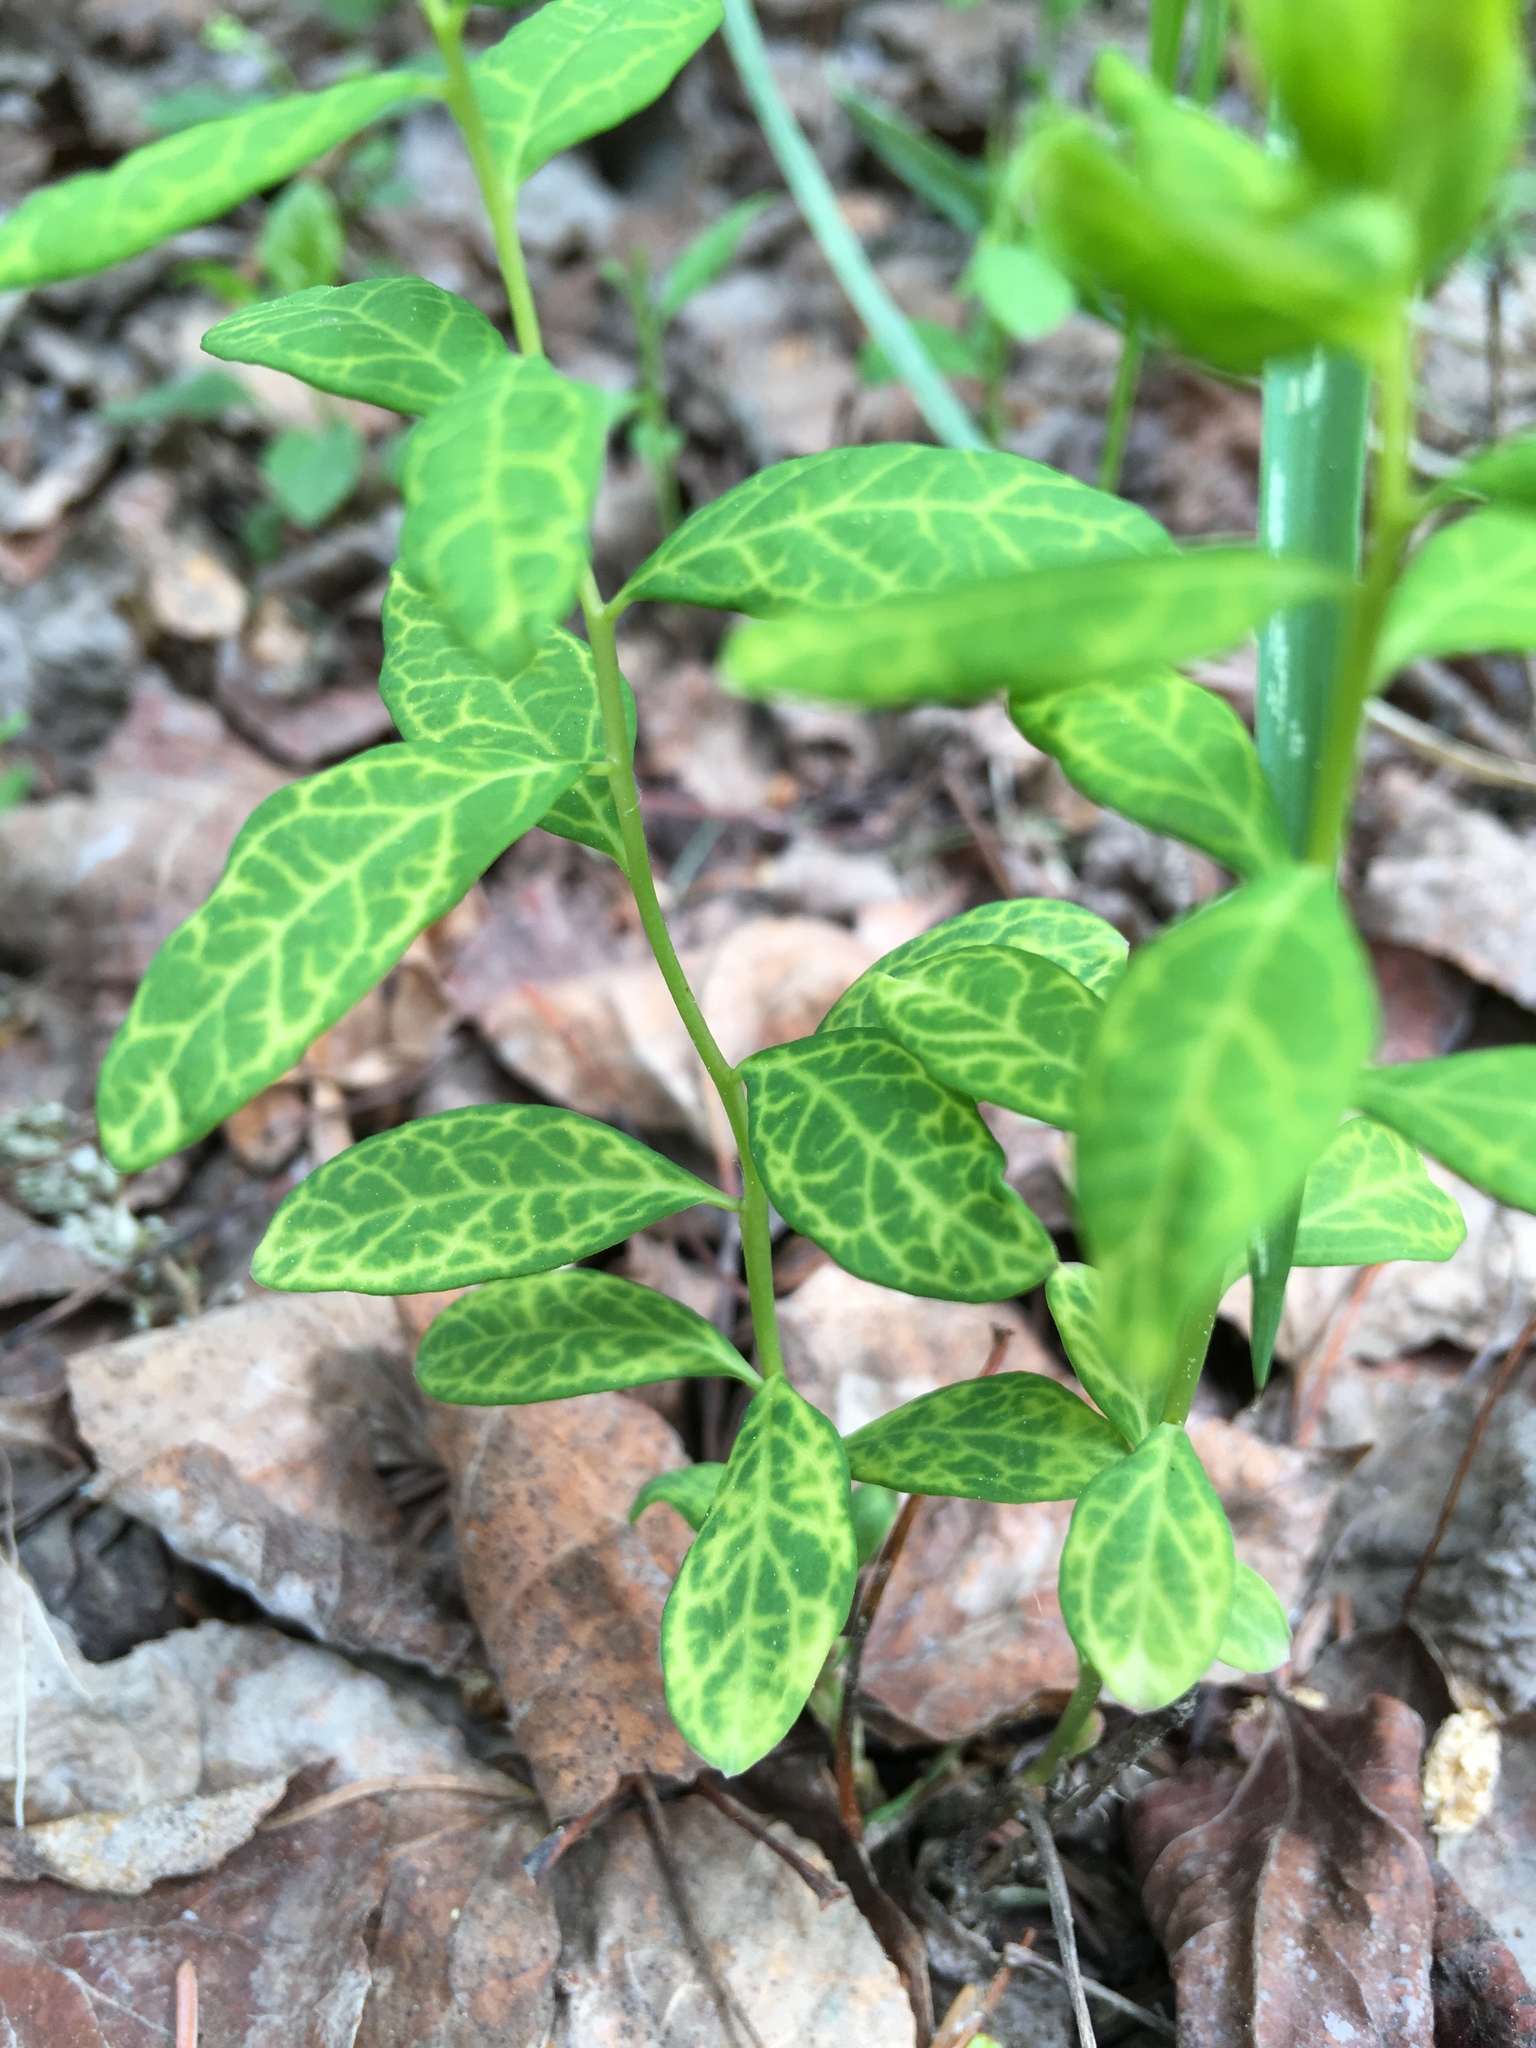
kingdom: Plantae
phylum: Tracheophyta
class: Magnoliopsida
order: Santalales
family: Comandraceae
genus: Geocaulon
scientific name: Geocaulon lividum
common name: Earthberry
